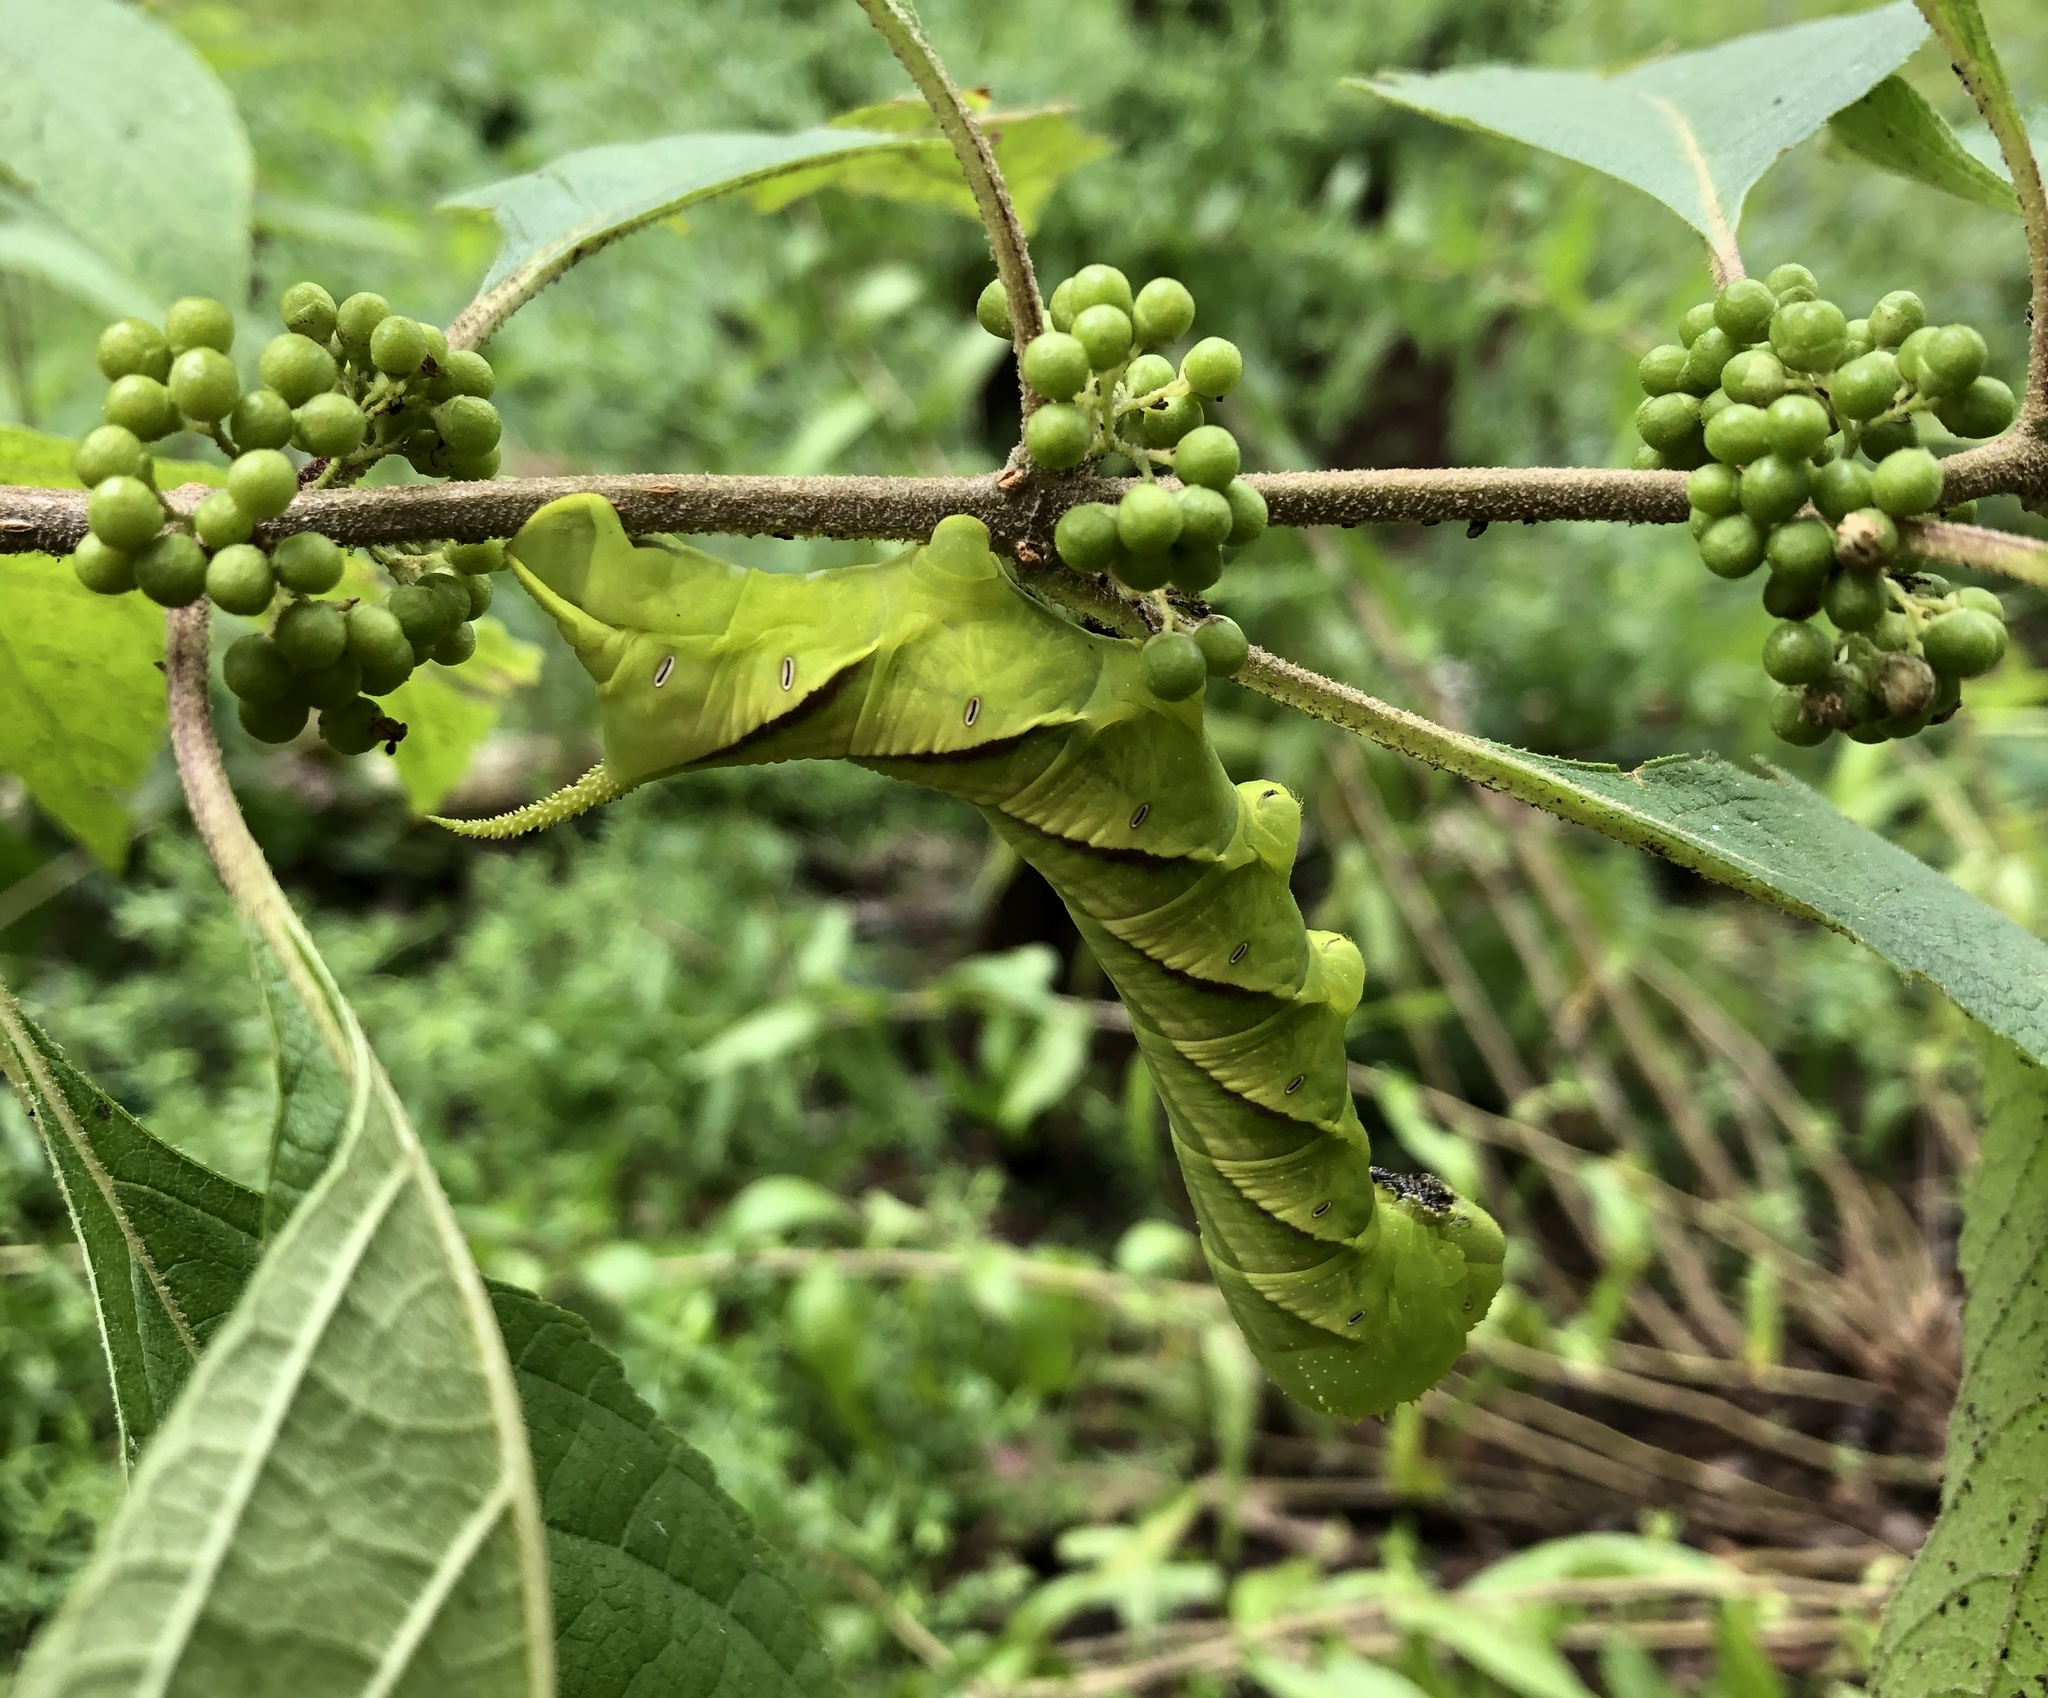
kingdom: Animalia
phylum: Arthropoda
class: Insecta
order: Lepidoptera
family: Sphingidae
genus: Manduca
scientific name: Manduca rustica
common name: Rustic sphinx
